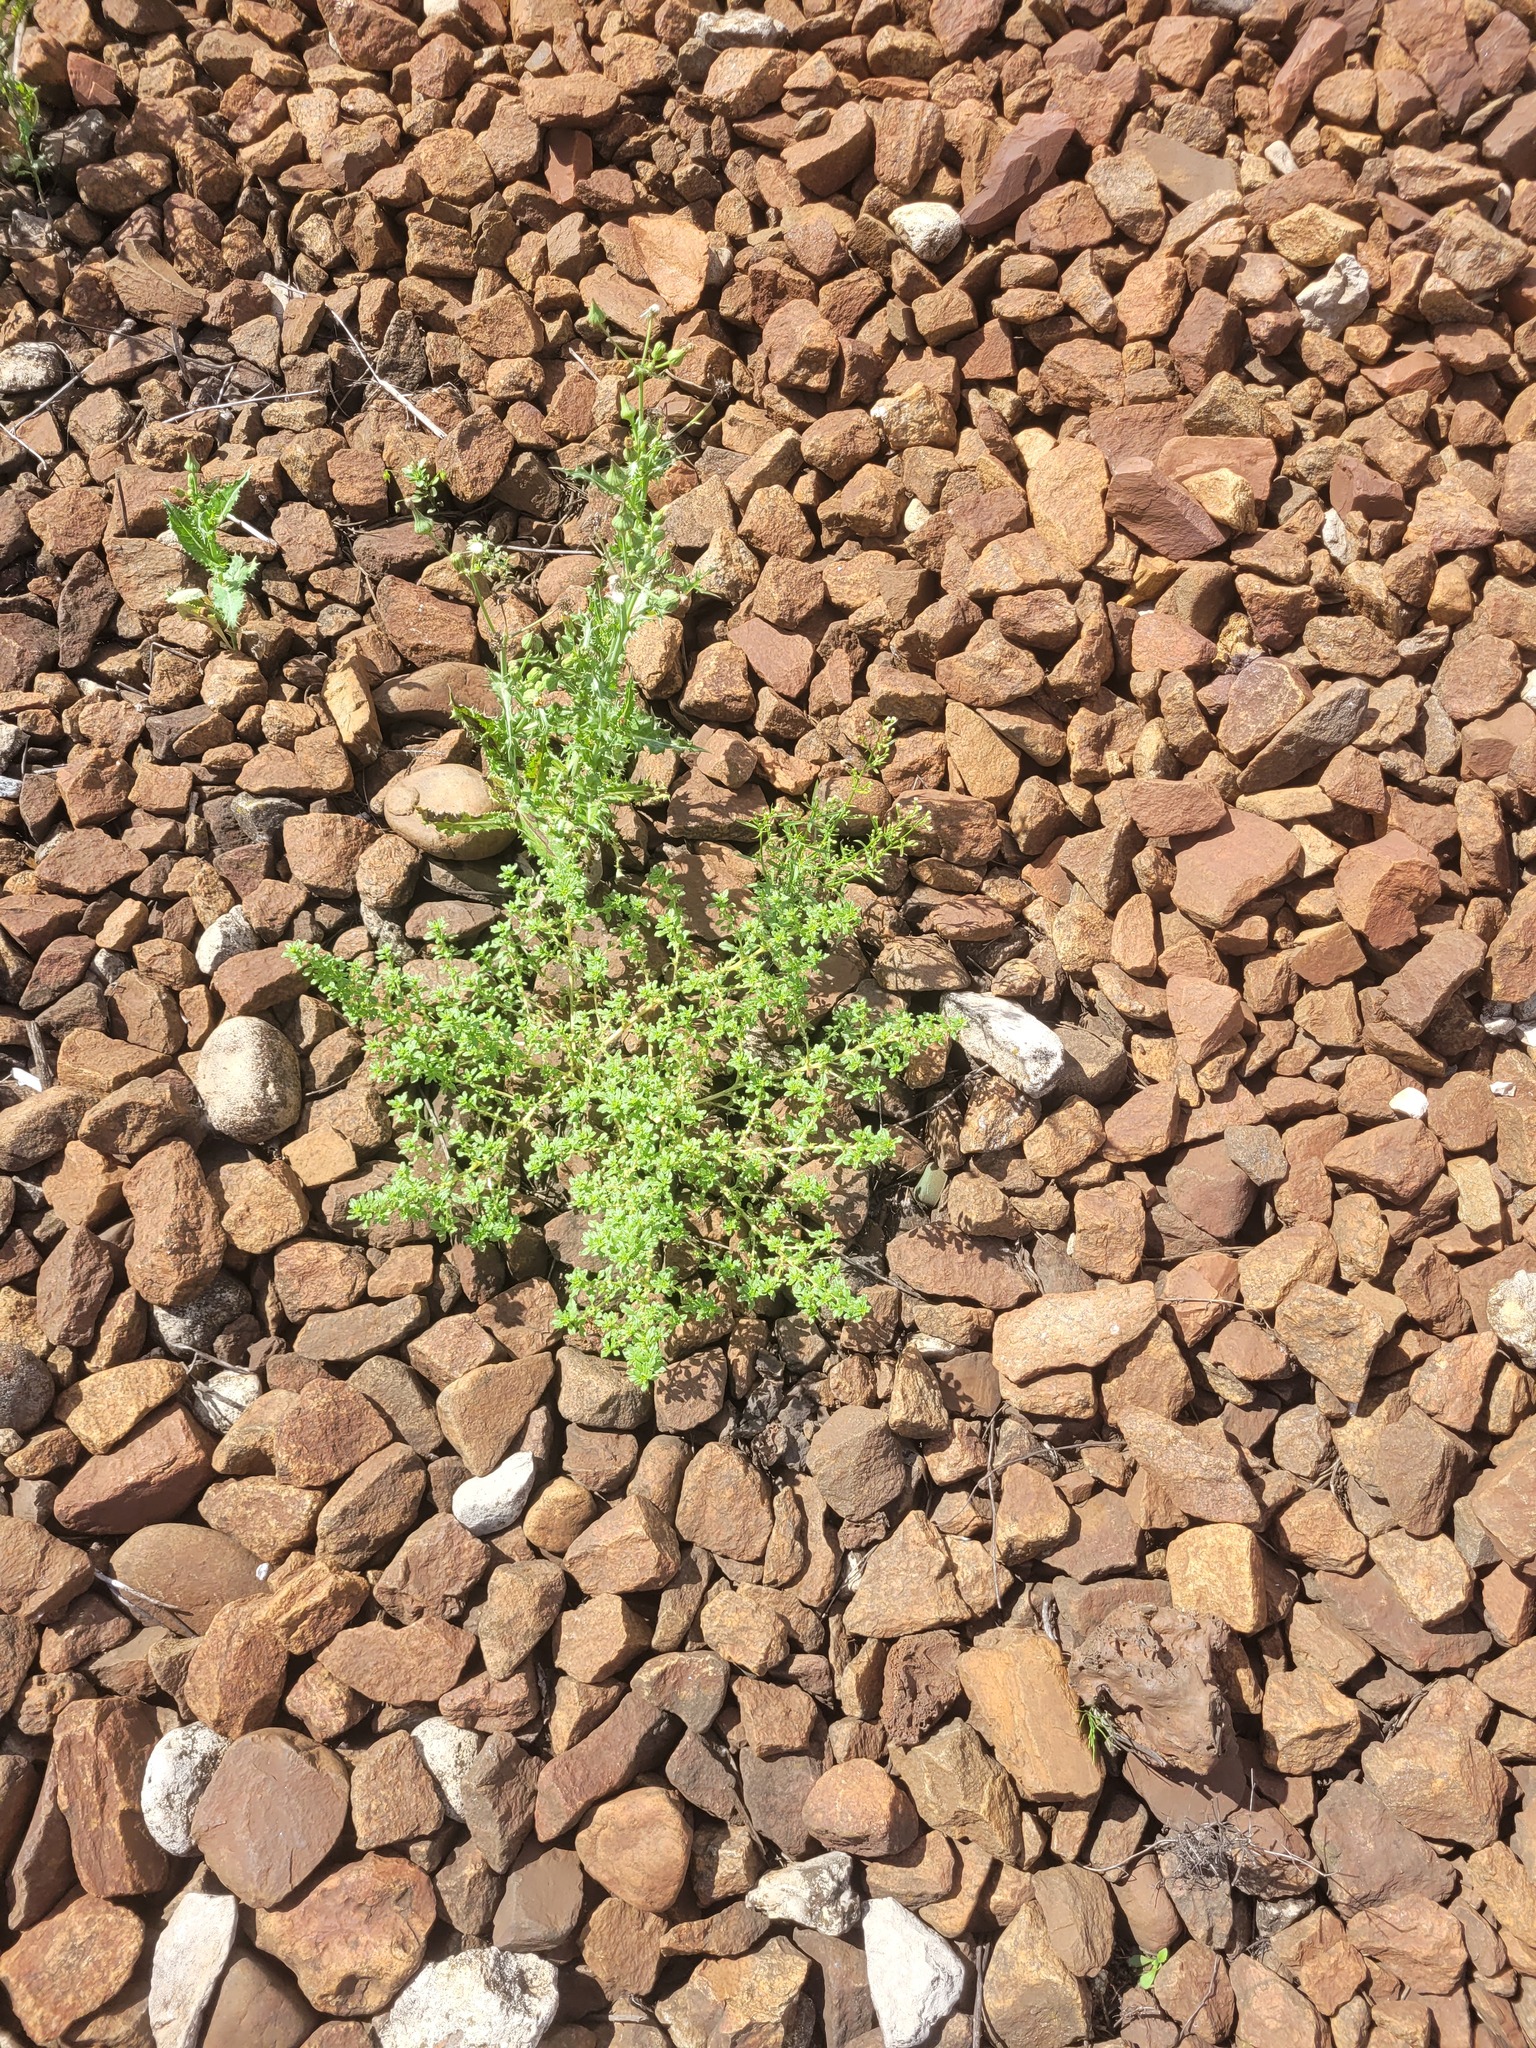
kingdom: Plantae
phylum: Tracheophyta
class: Magnoliopsida
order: Caryophyllales
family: Amaranthaceae
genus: Amaranthus
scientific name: Amaranthus albus
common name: White pigweed
